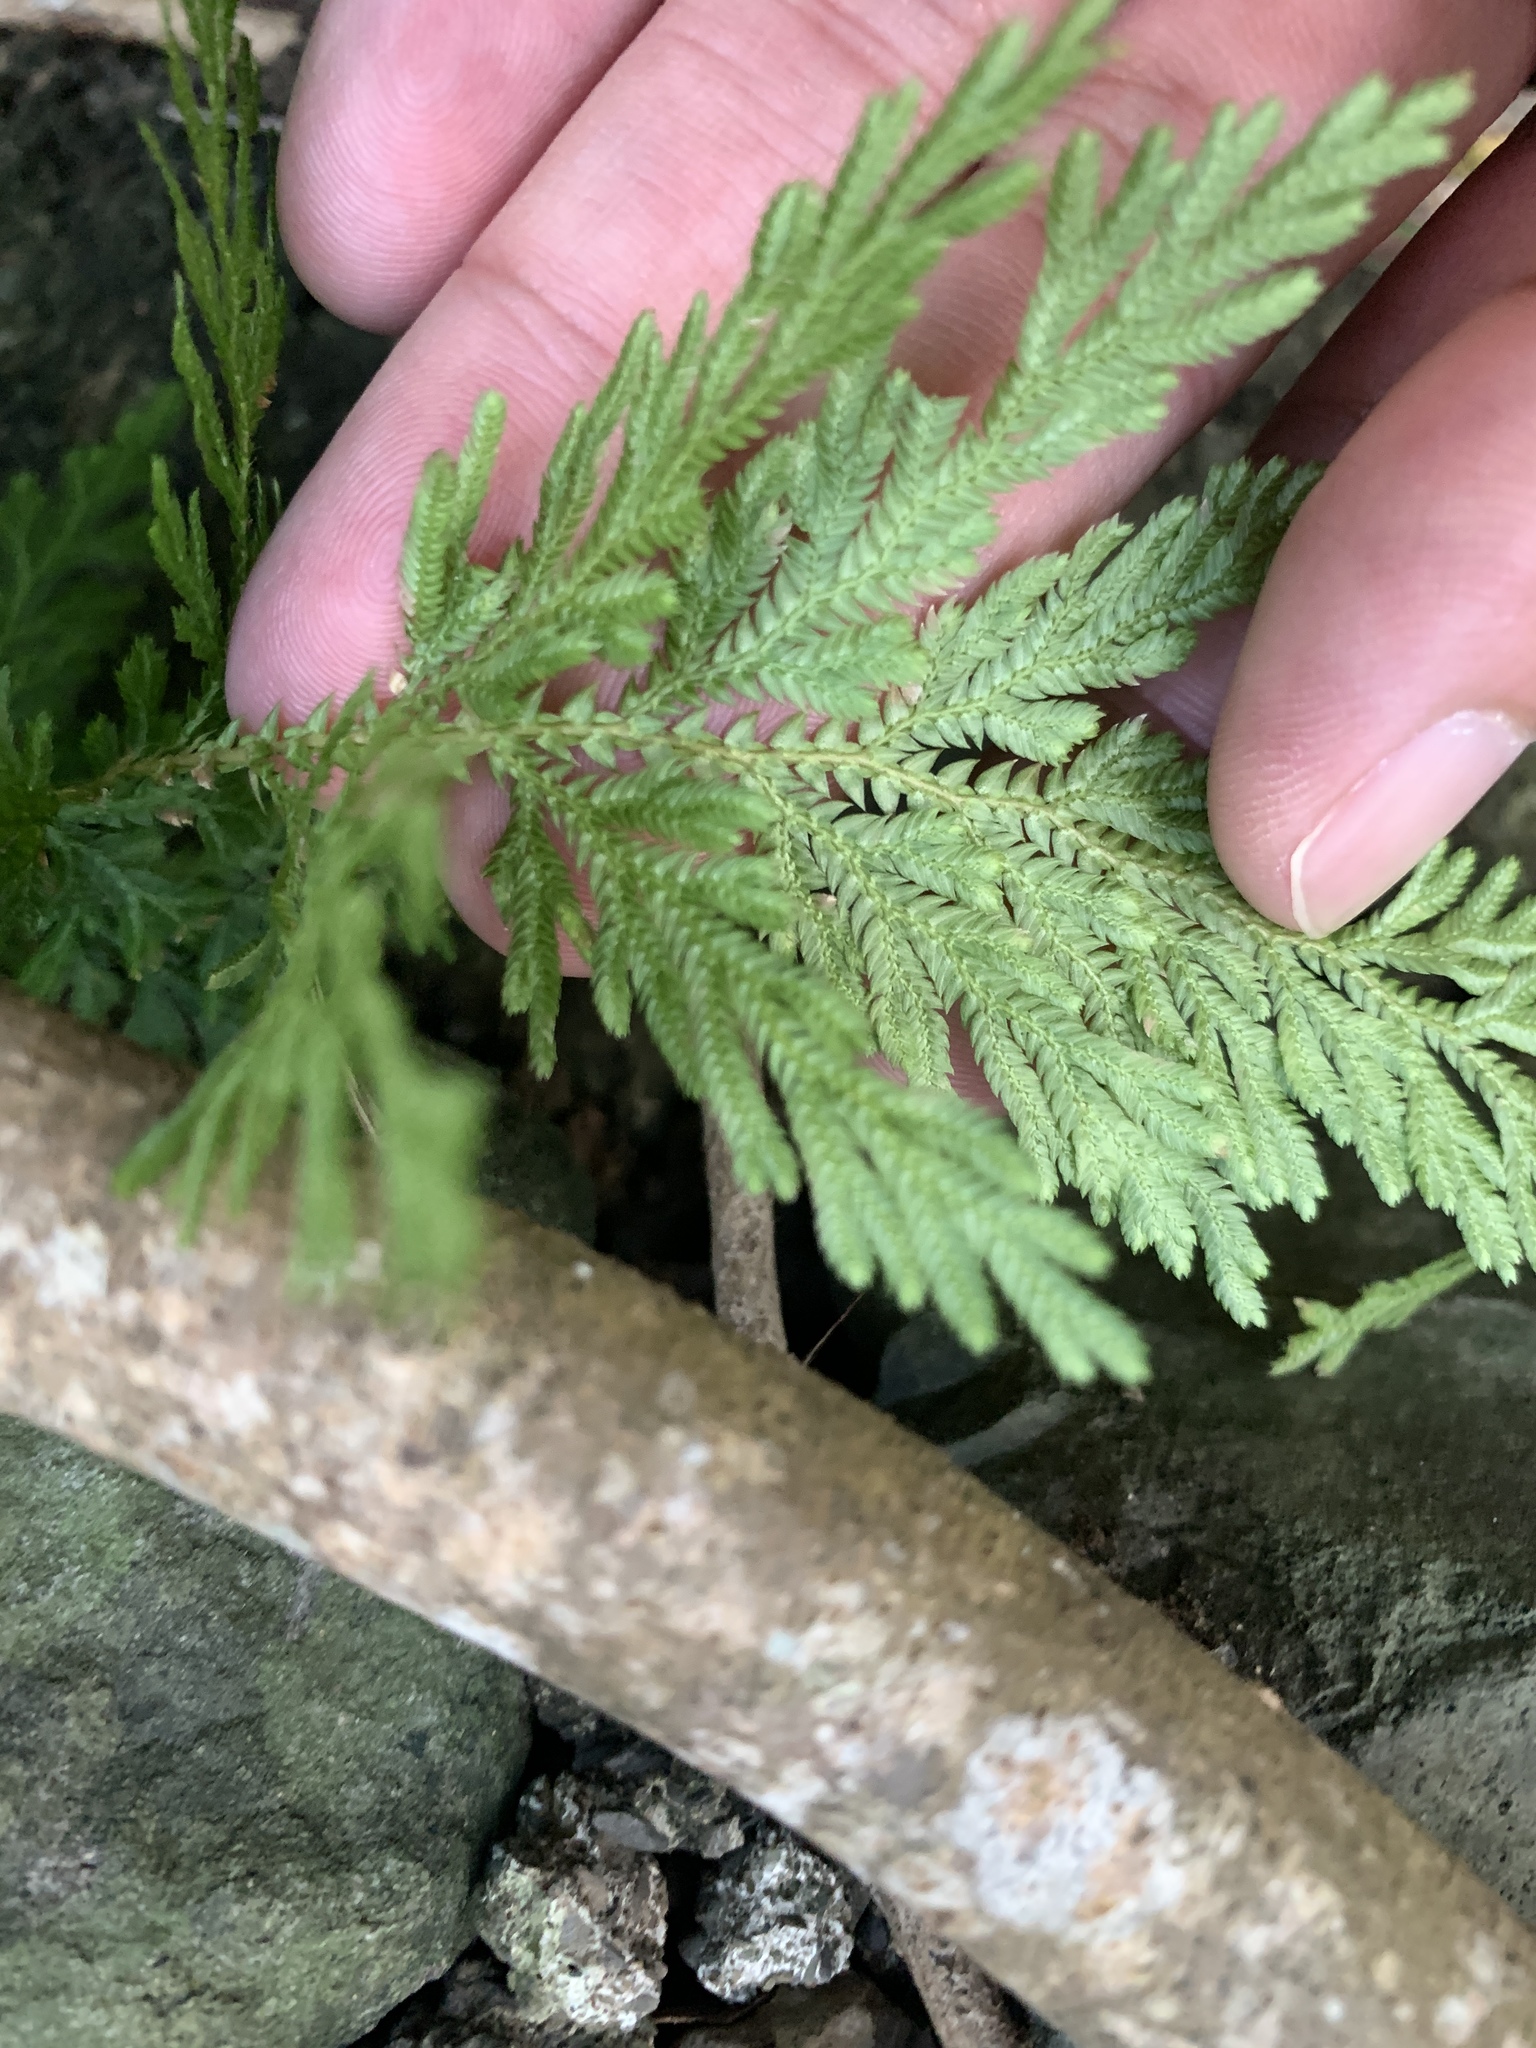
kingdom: Plantae
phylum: Tracheophyta
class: Lycopodiopsida
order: Selaginellales
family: Selaginellaceae
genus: Selaginella
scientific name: Selaginella moellendorffii
